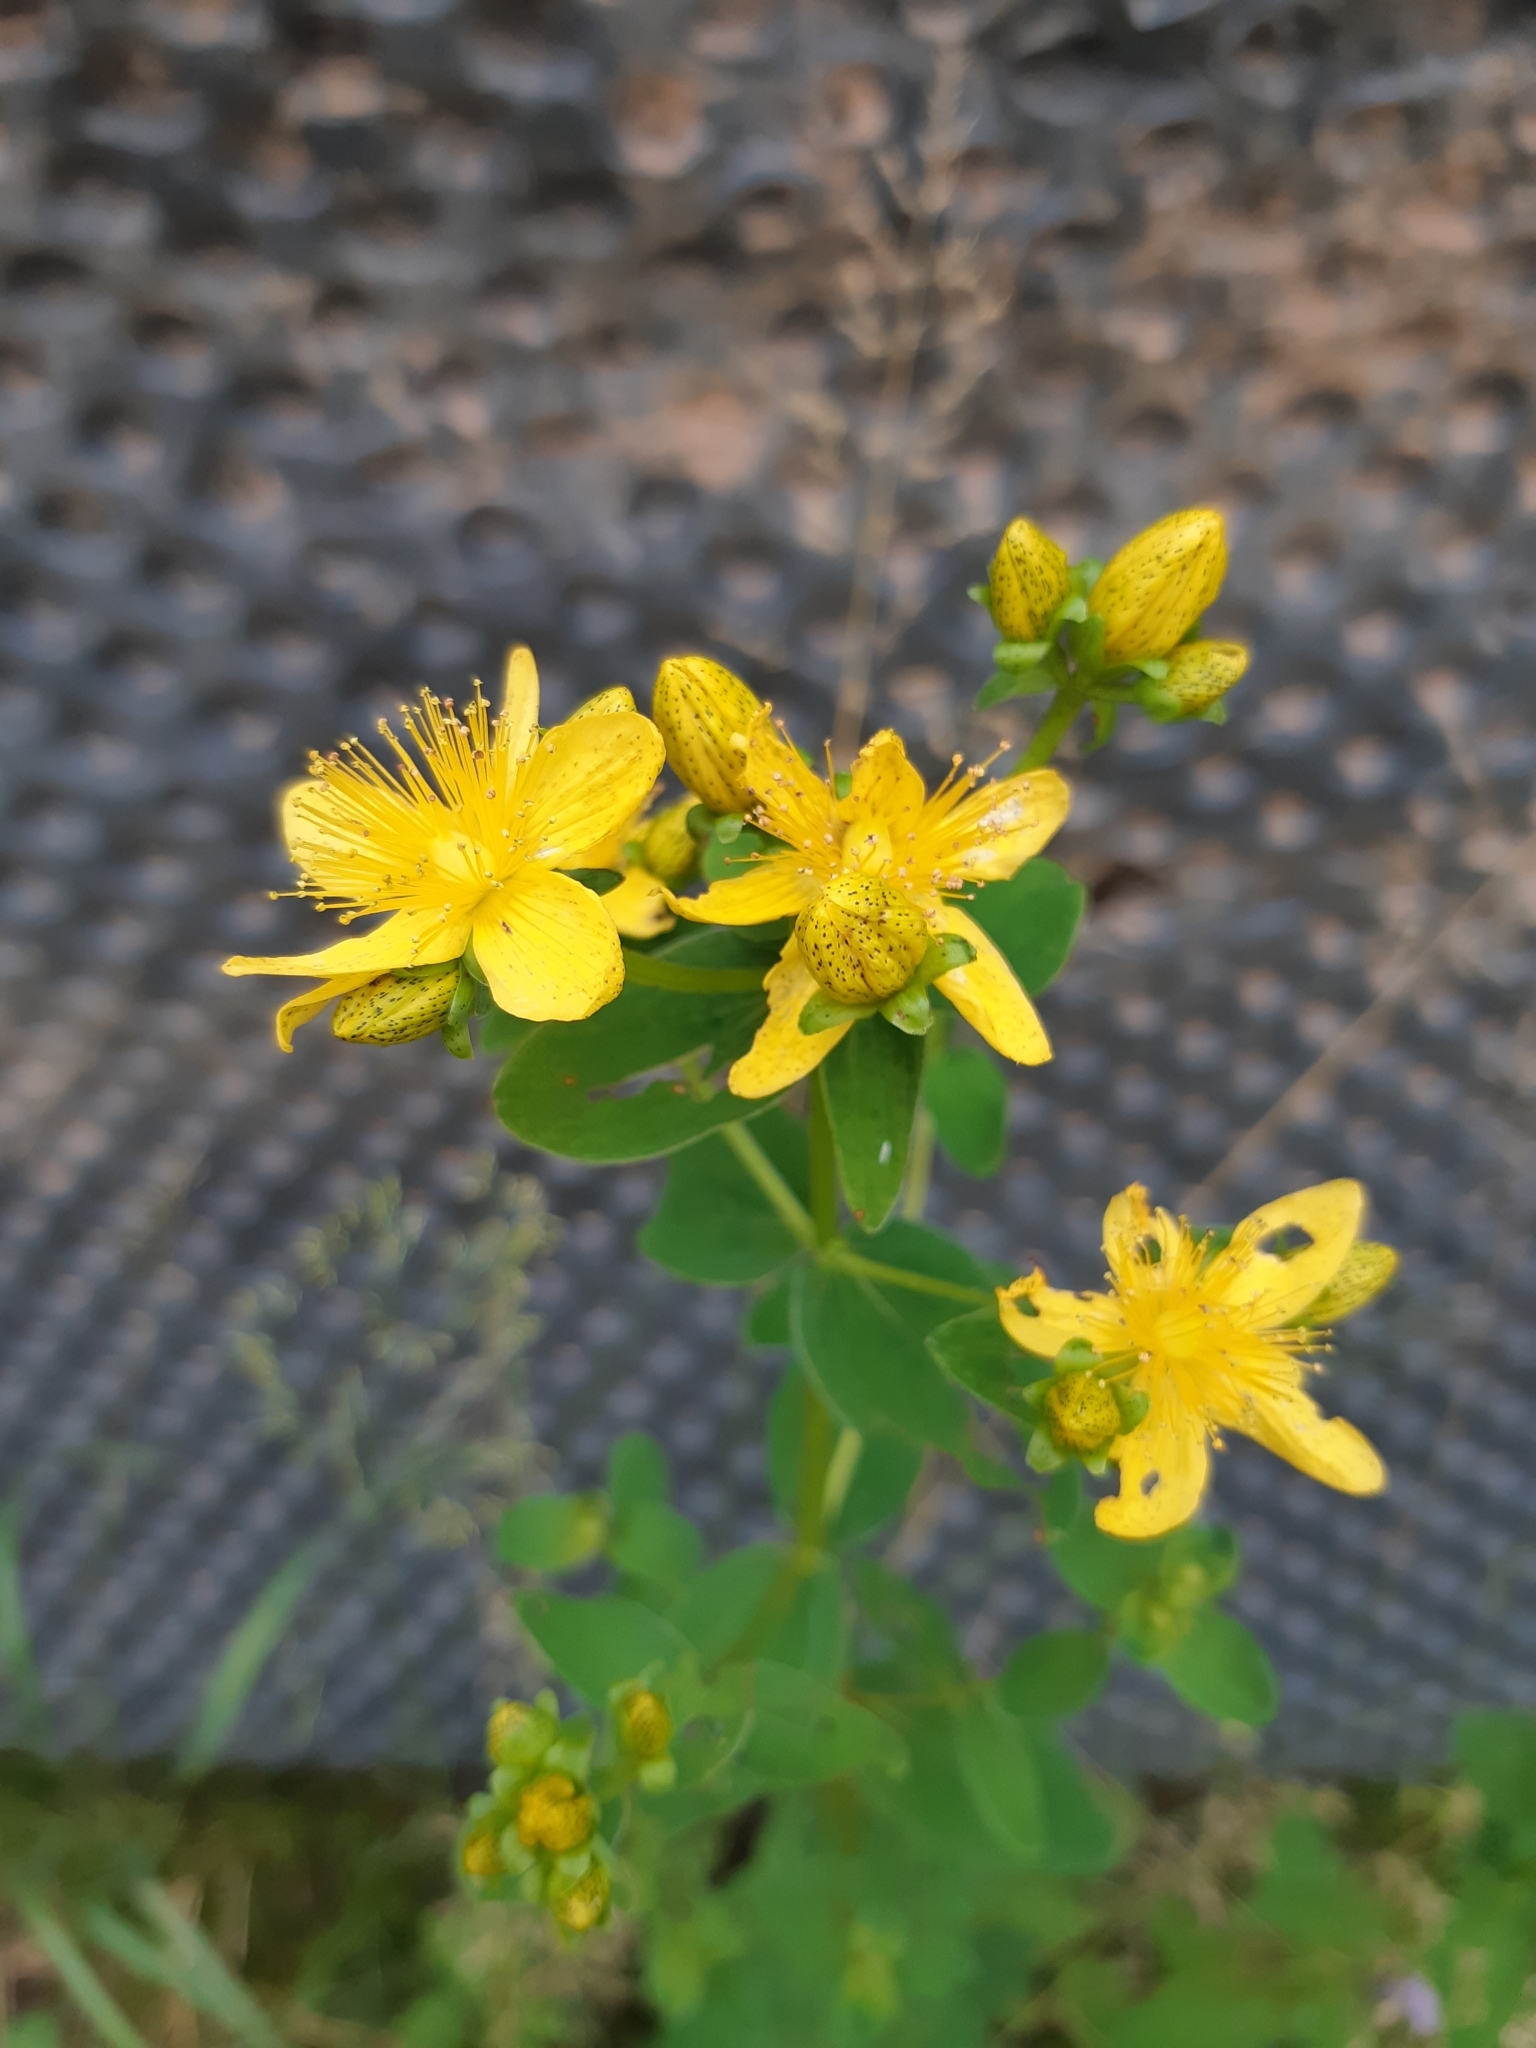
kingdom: Plantae
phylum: Tracheophyta
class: Magnoliopsida
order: Malpighiales
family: Hypericaceae
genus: Hypericum
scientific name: Hypericum maculatum
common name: Imperforate st. john's-wort
